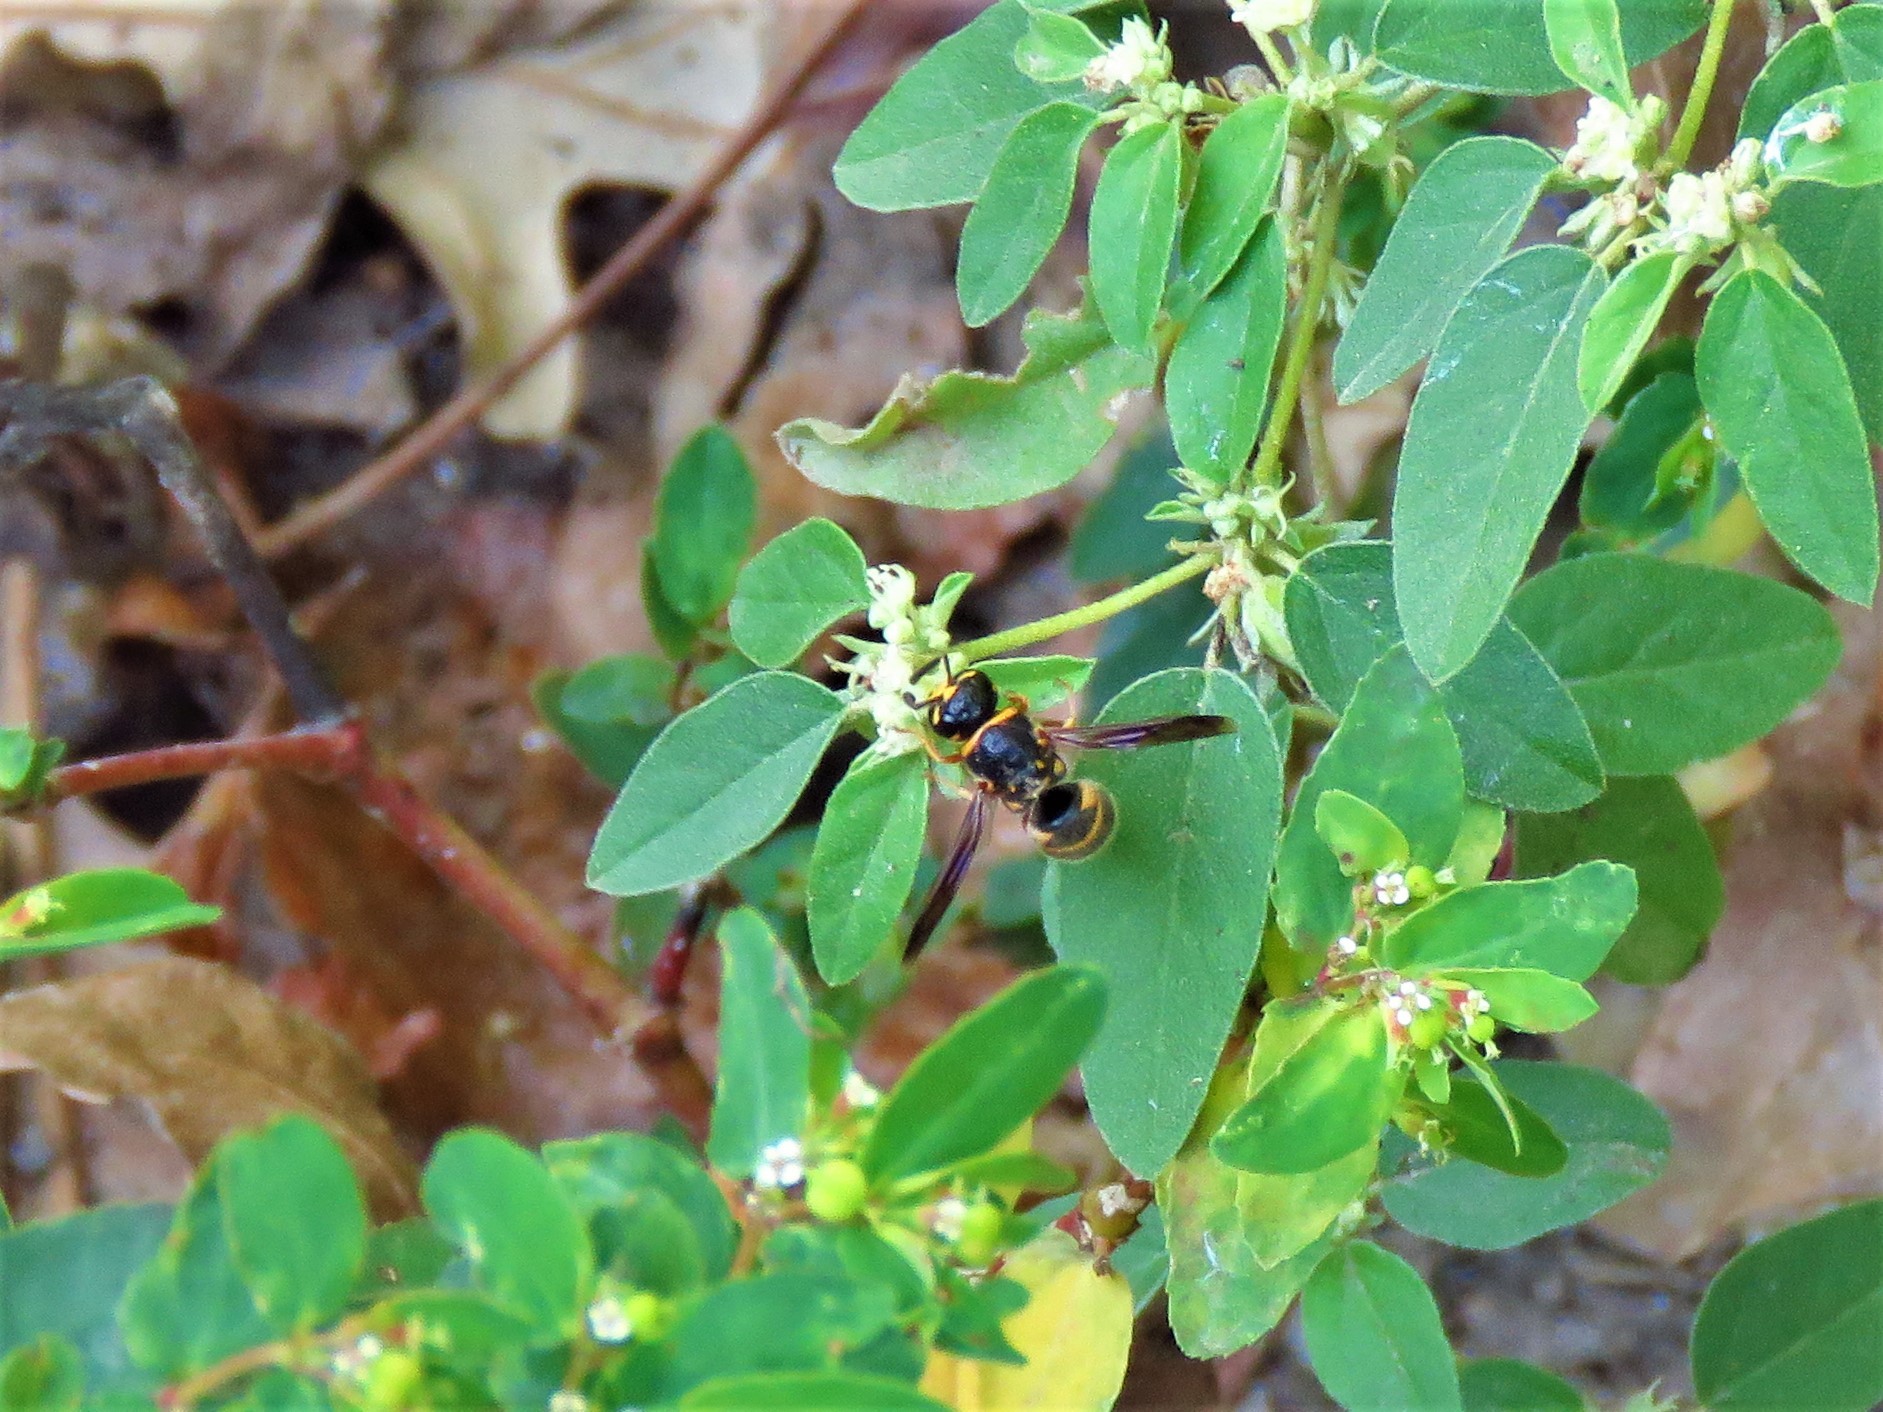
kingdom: Animalia
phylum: Arthropoda
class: Insecta
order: Hymenoptera
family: Eumenidae
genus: Euodynerus
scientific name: Euodynerus
